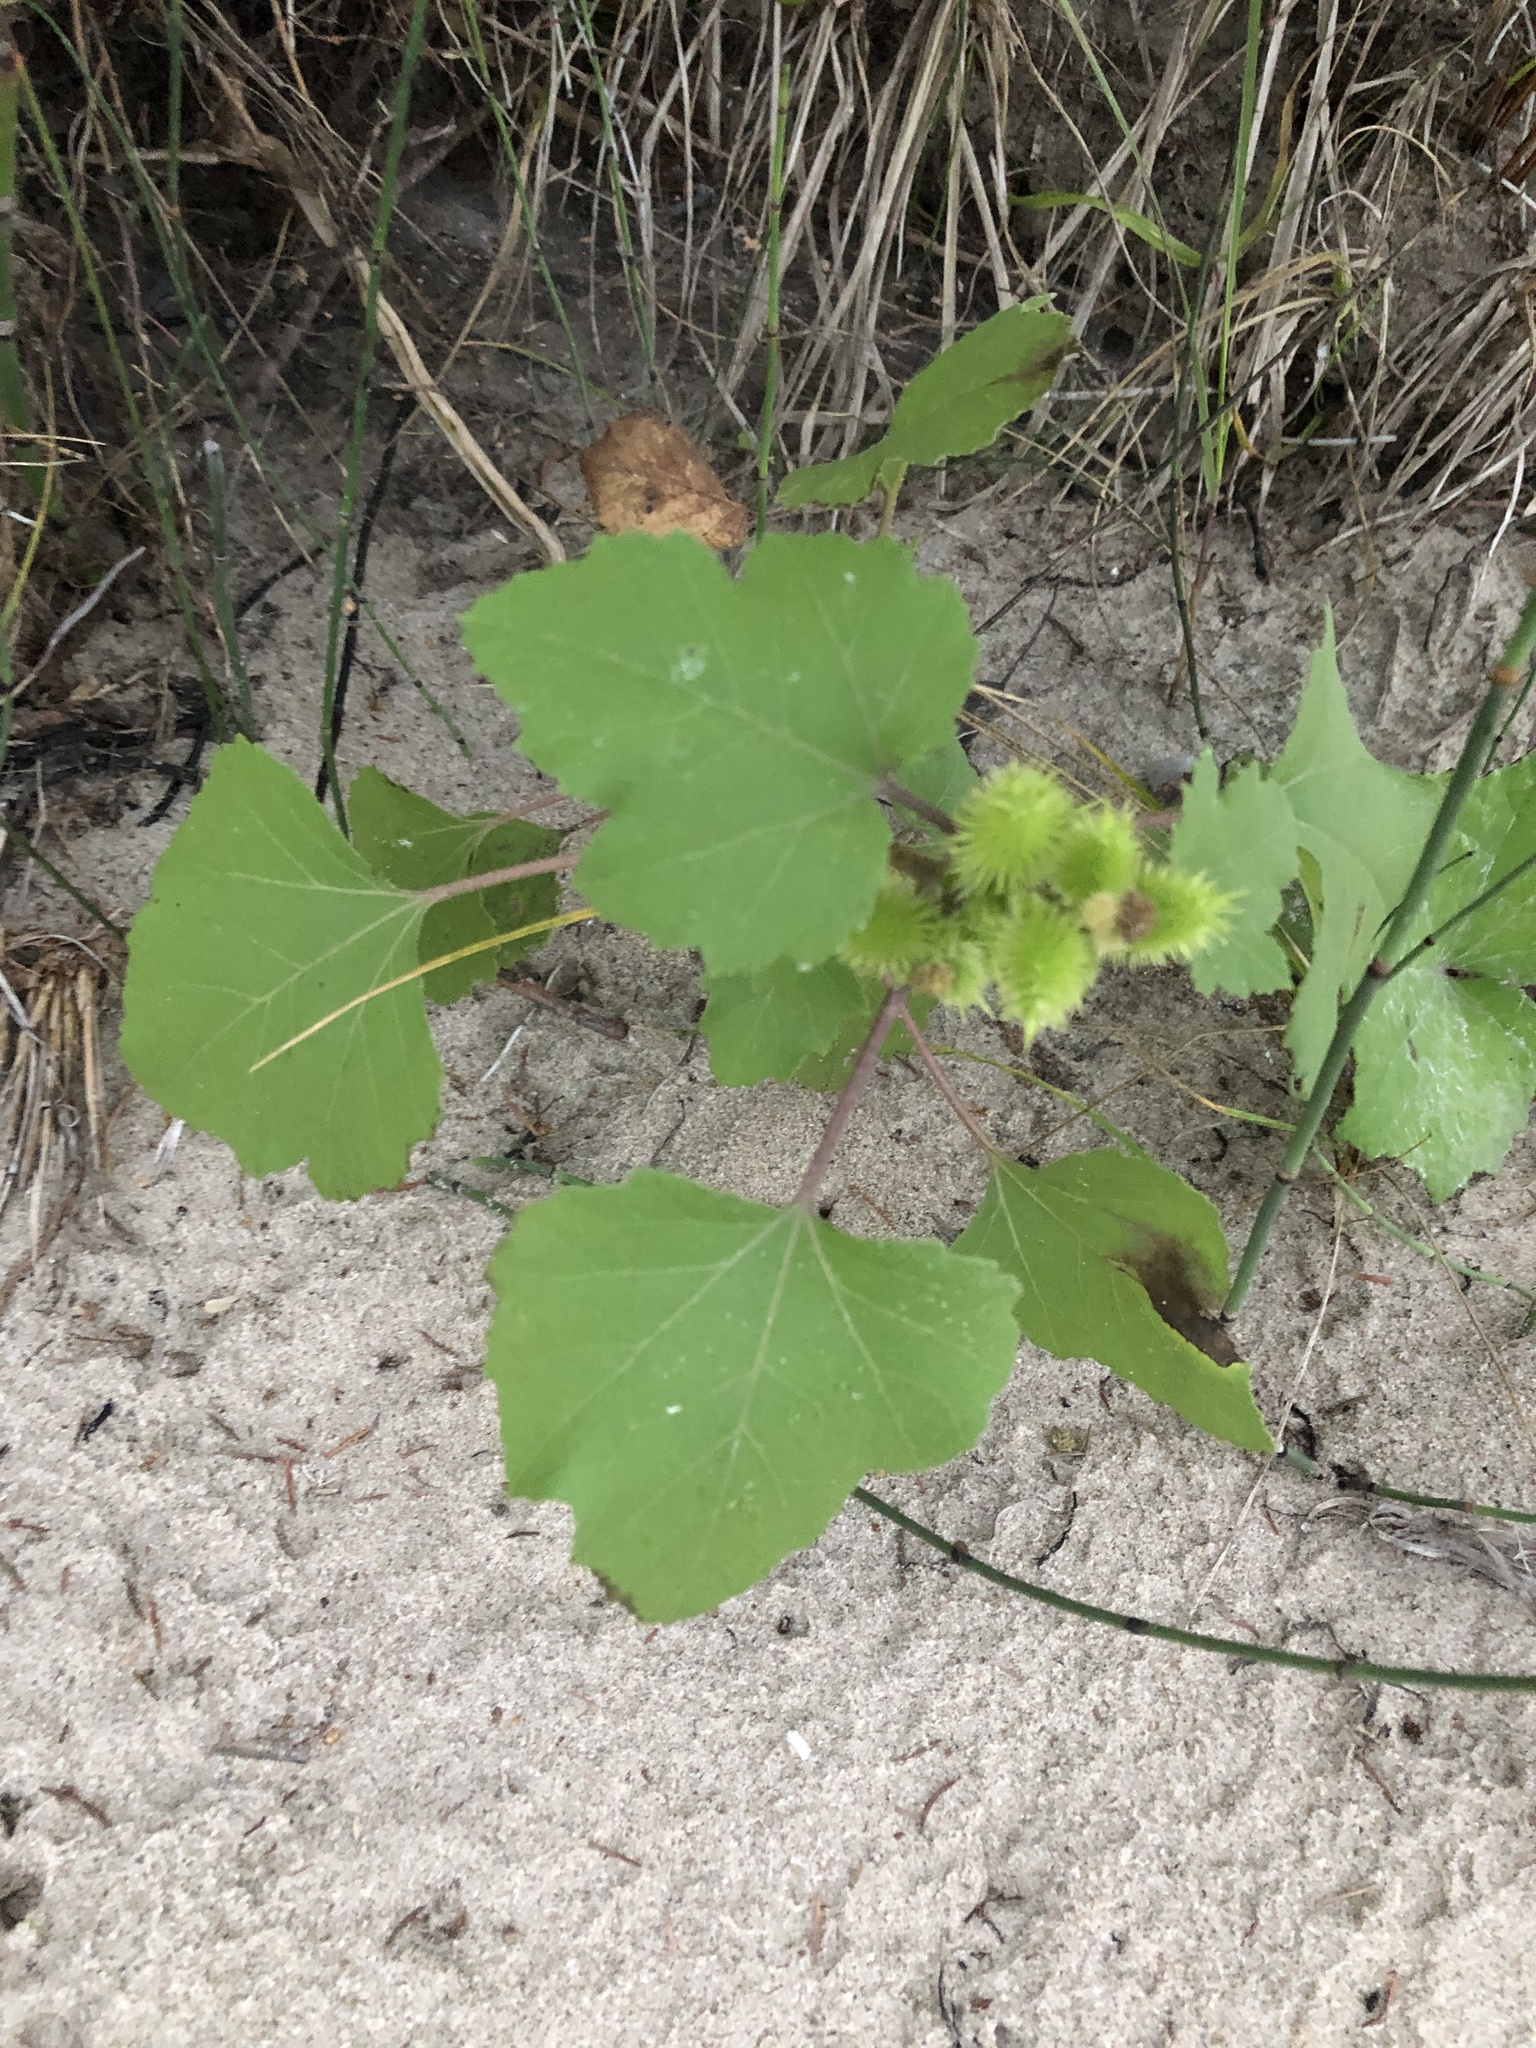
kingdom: Plantae
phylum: Tracheophyta
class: Magnoliopsida
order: Asterales
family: Asteraceae
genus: Xanthium
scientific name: Xanthium strumarium
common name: Rough cocklebur
